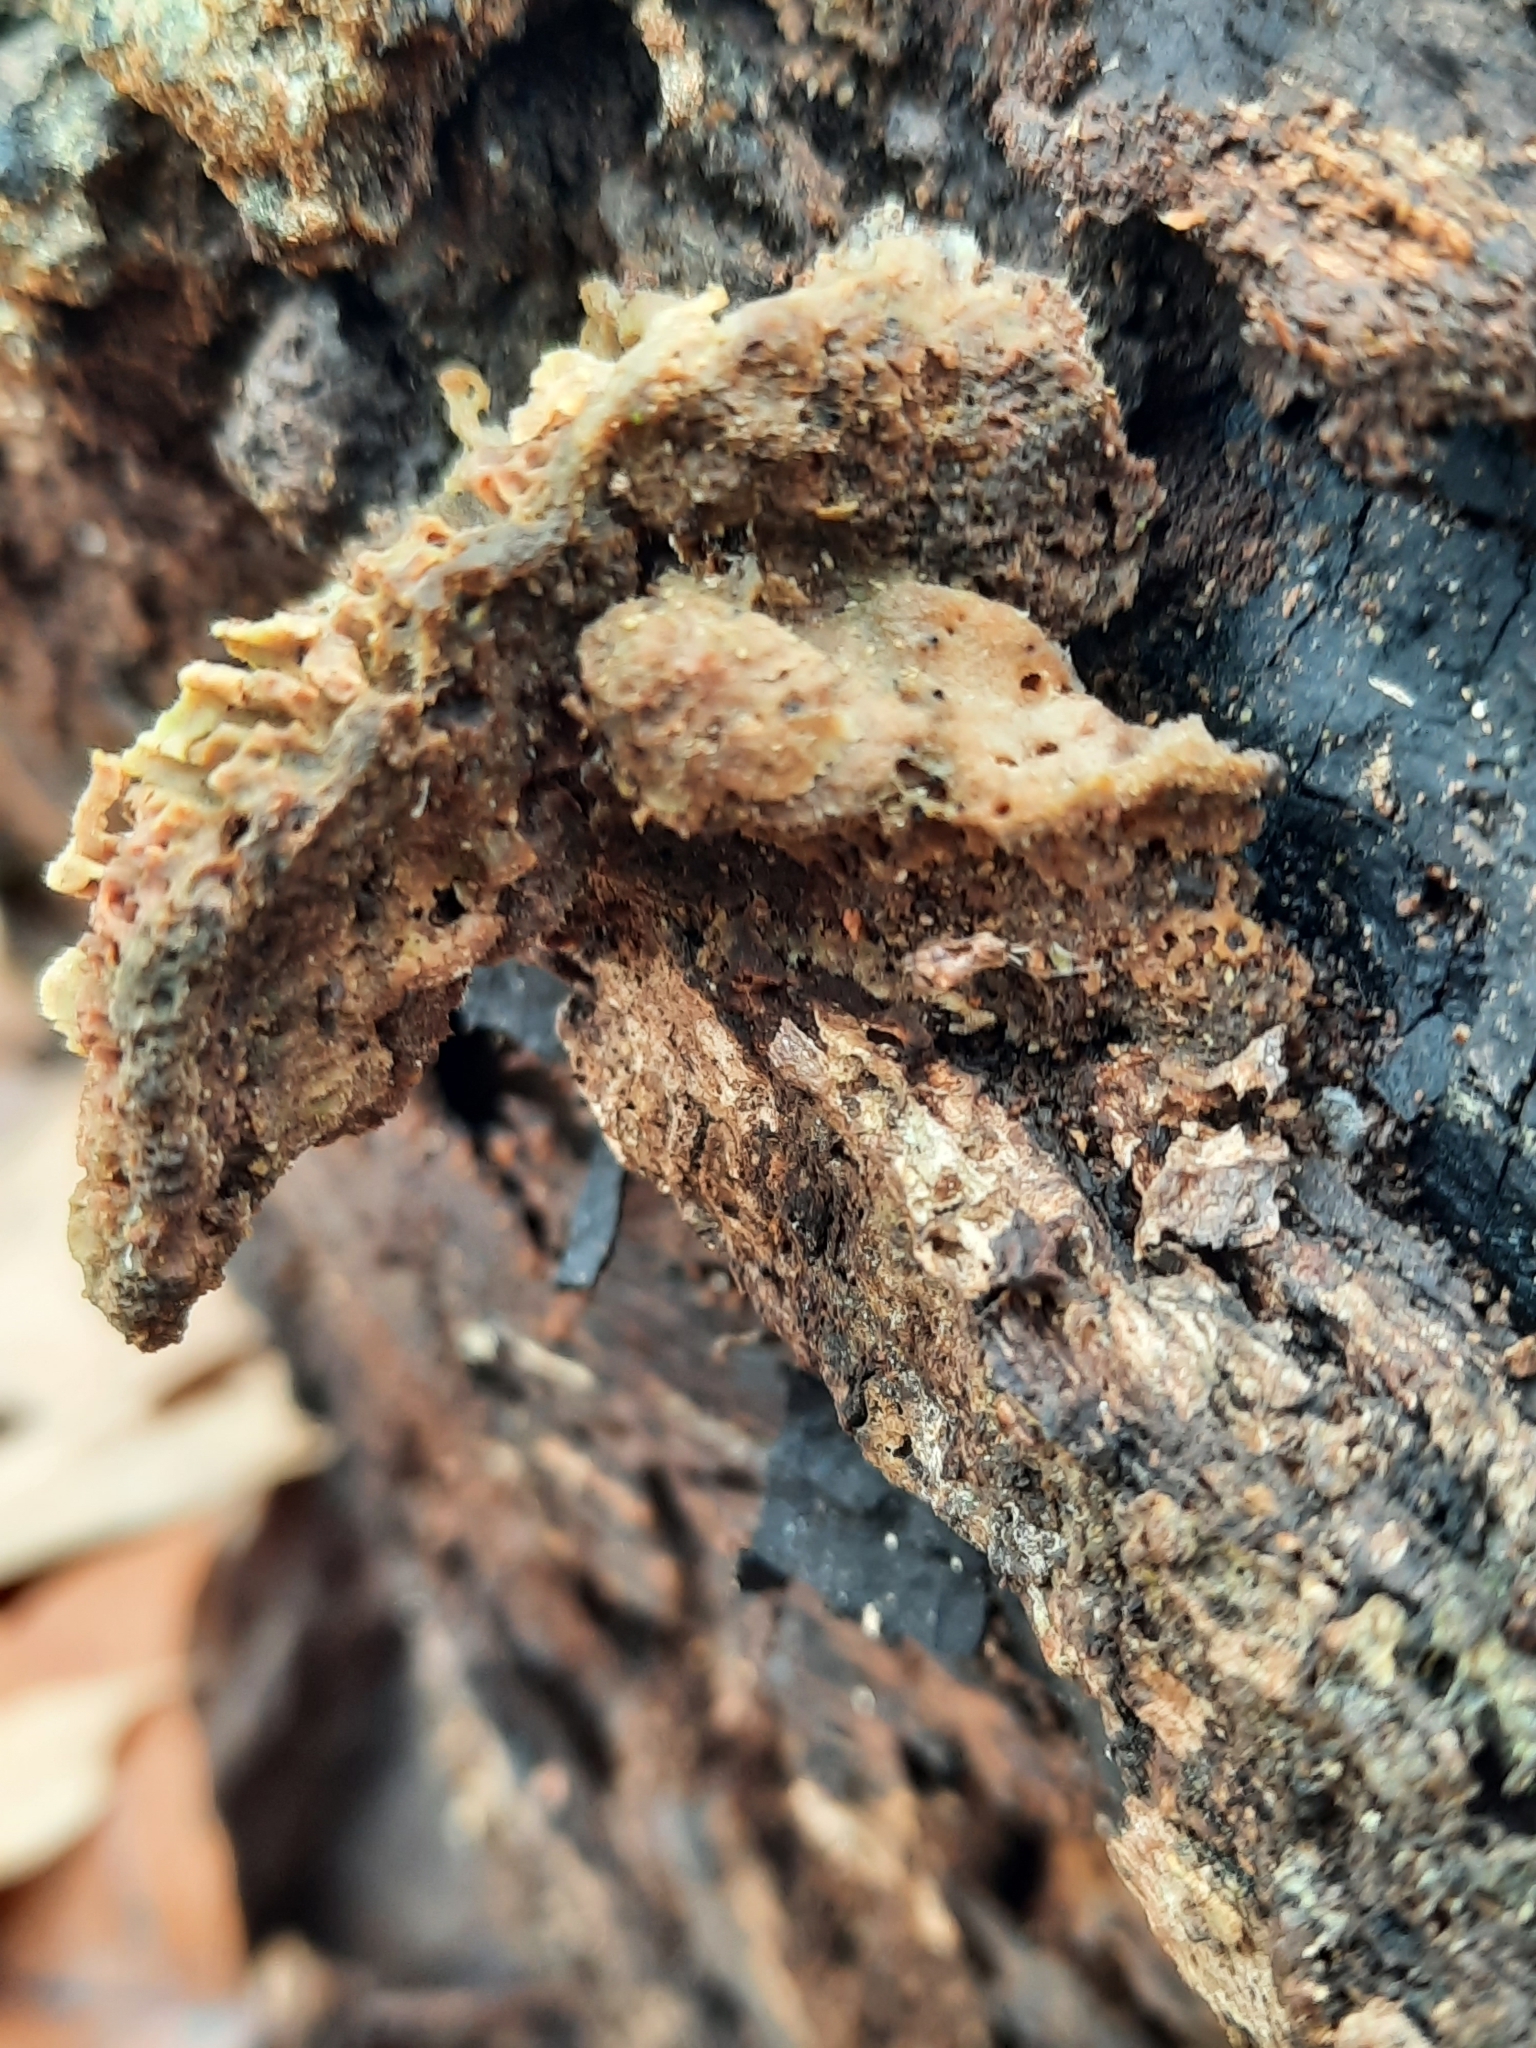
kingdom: Fungi
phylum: Basidiomycota
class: Agaricomycetes
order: Polyporales
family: Fomitopsidaceae
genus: Fomitopsis
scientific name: Fomitopsis
